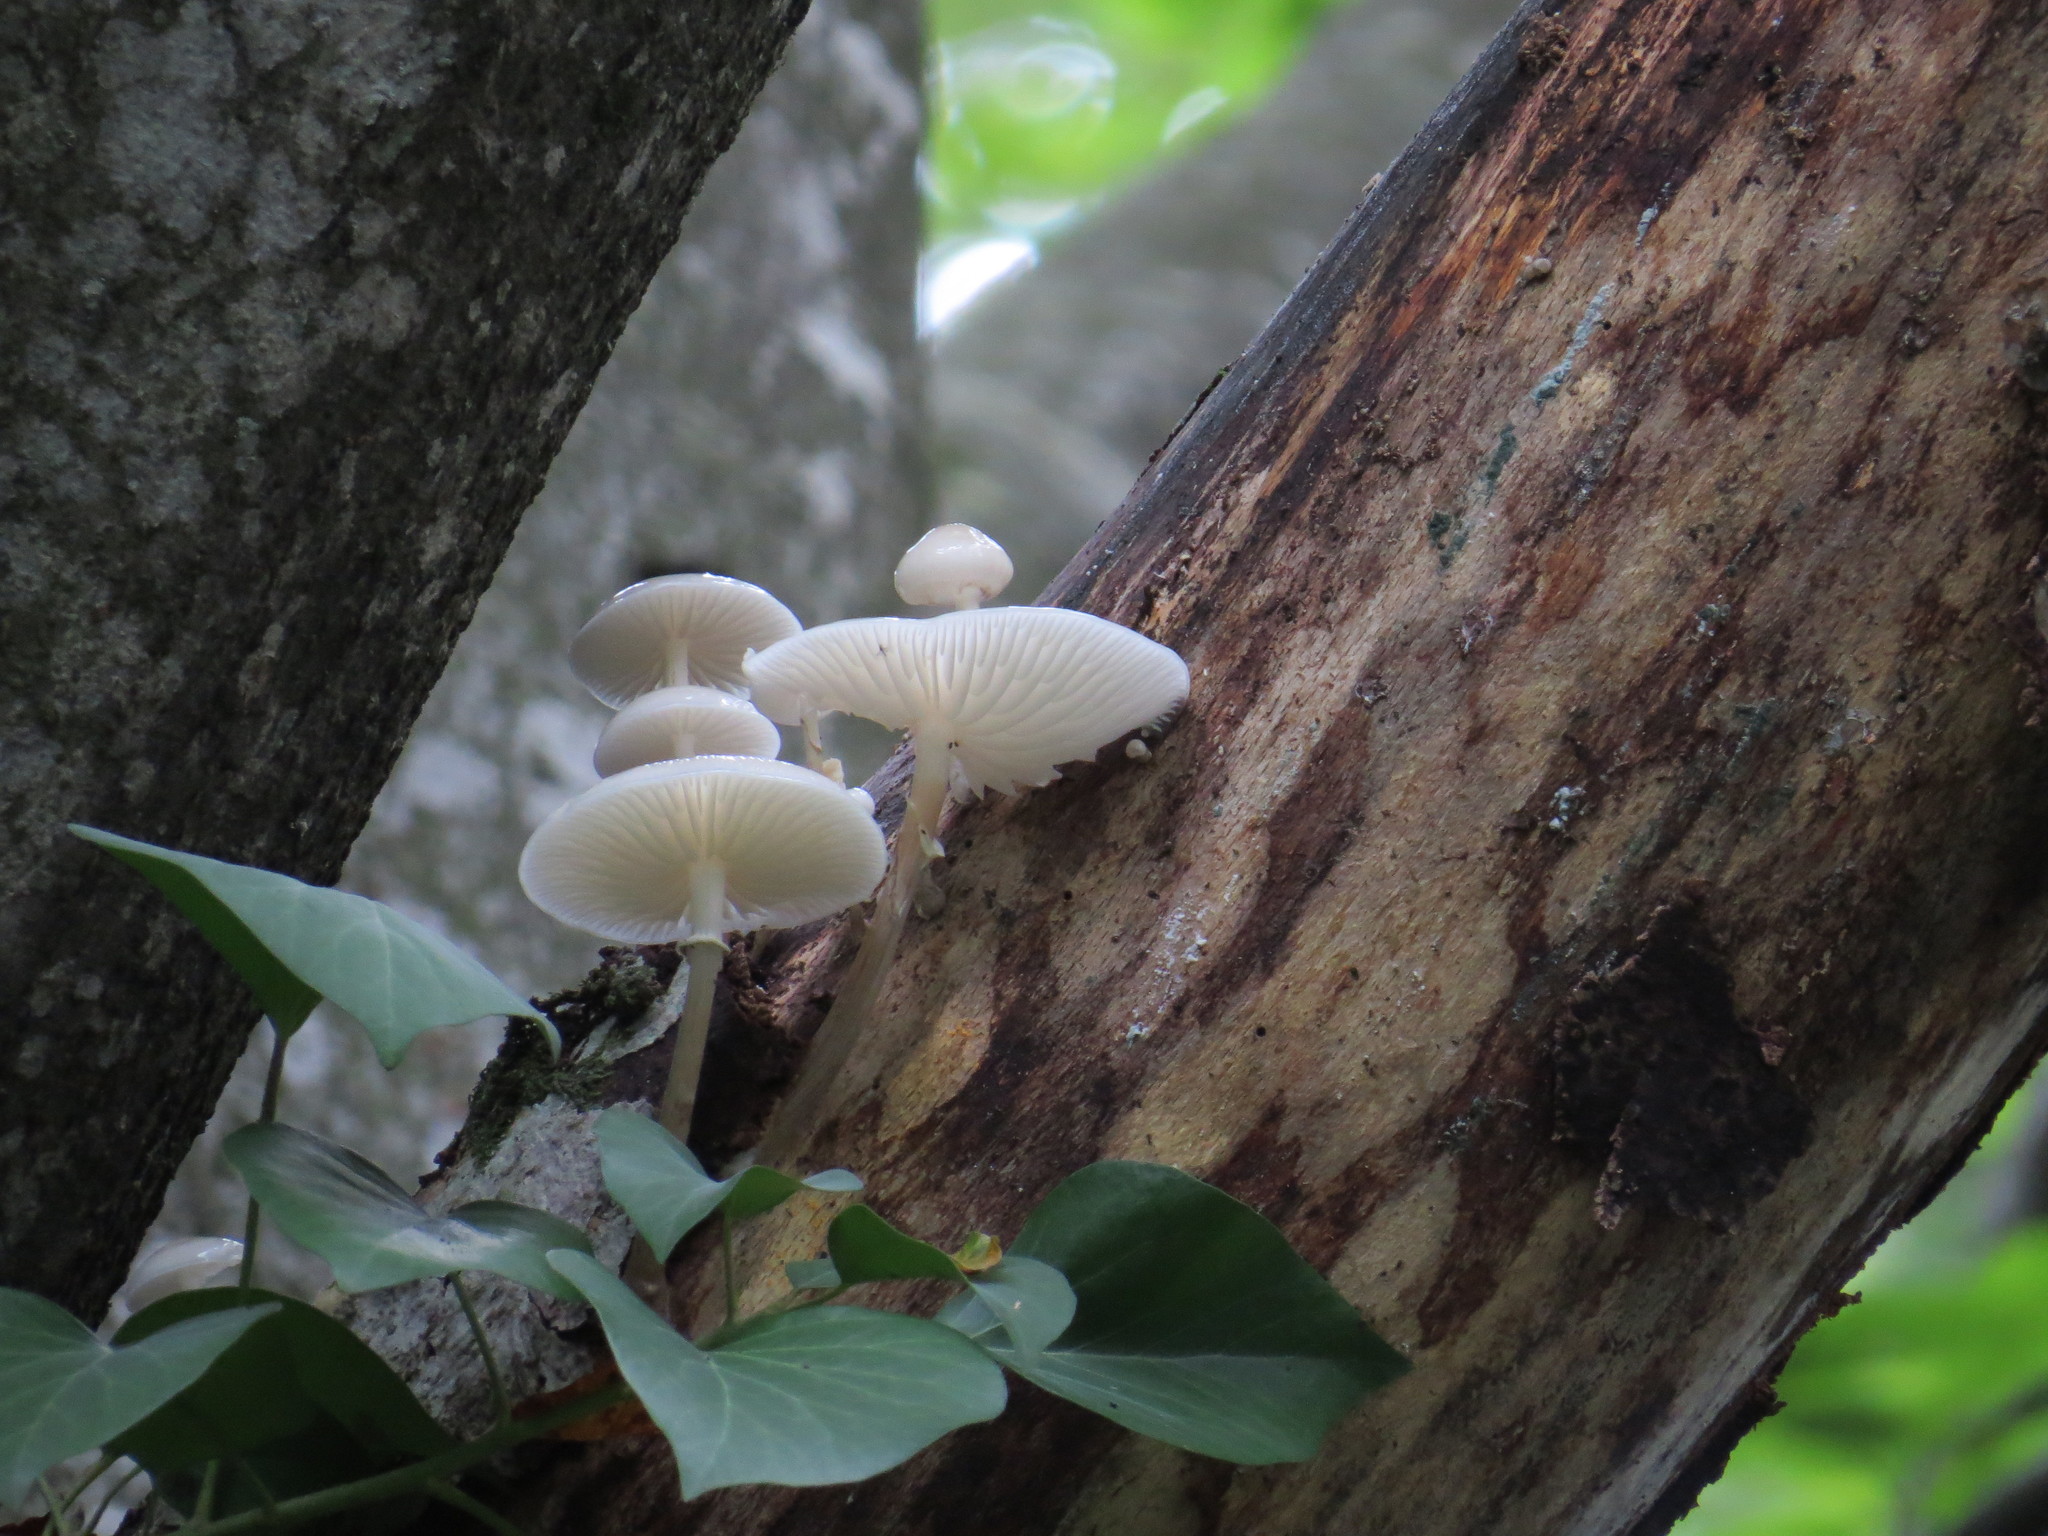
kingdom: Fungi
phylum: Basidiomycota
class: Agaricomycetes
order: Agaricales
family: Physalacriaceae
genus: Mucidula
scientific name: Mucidula mucida
